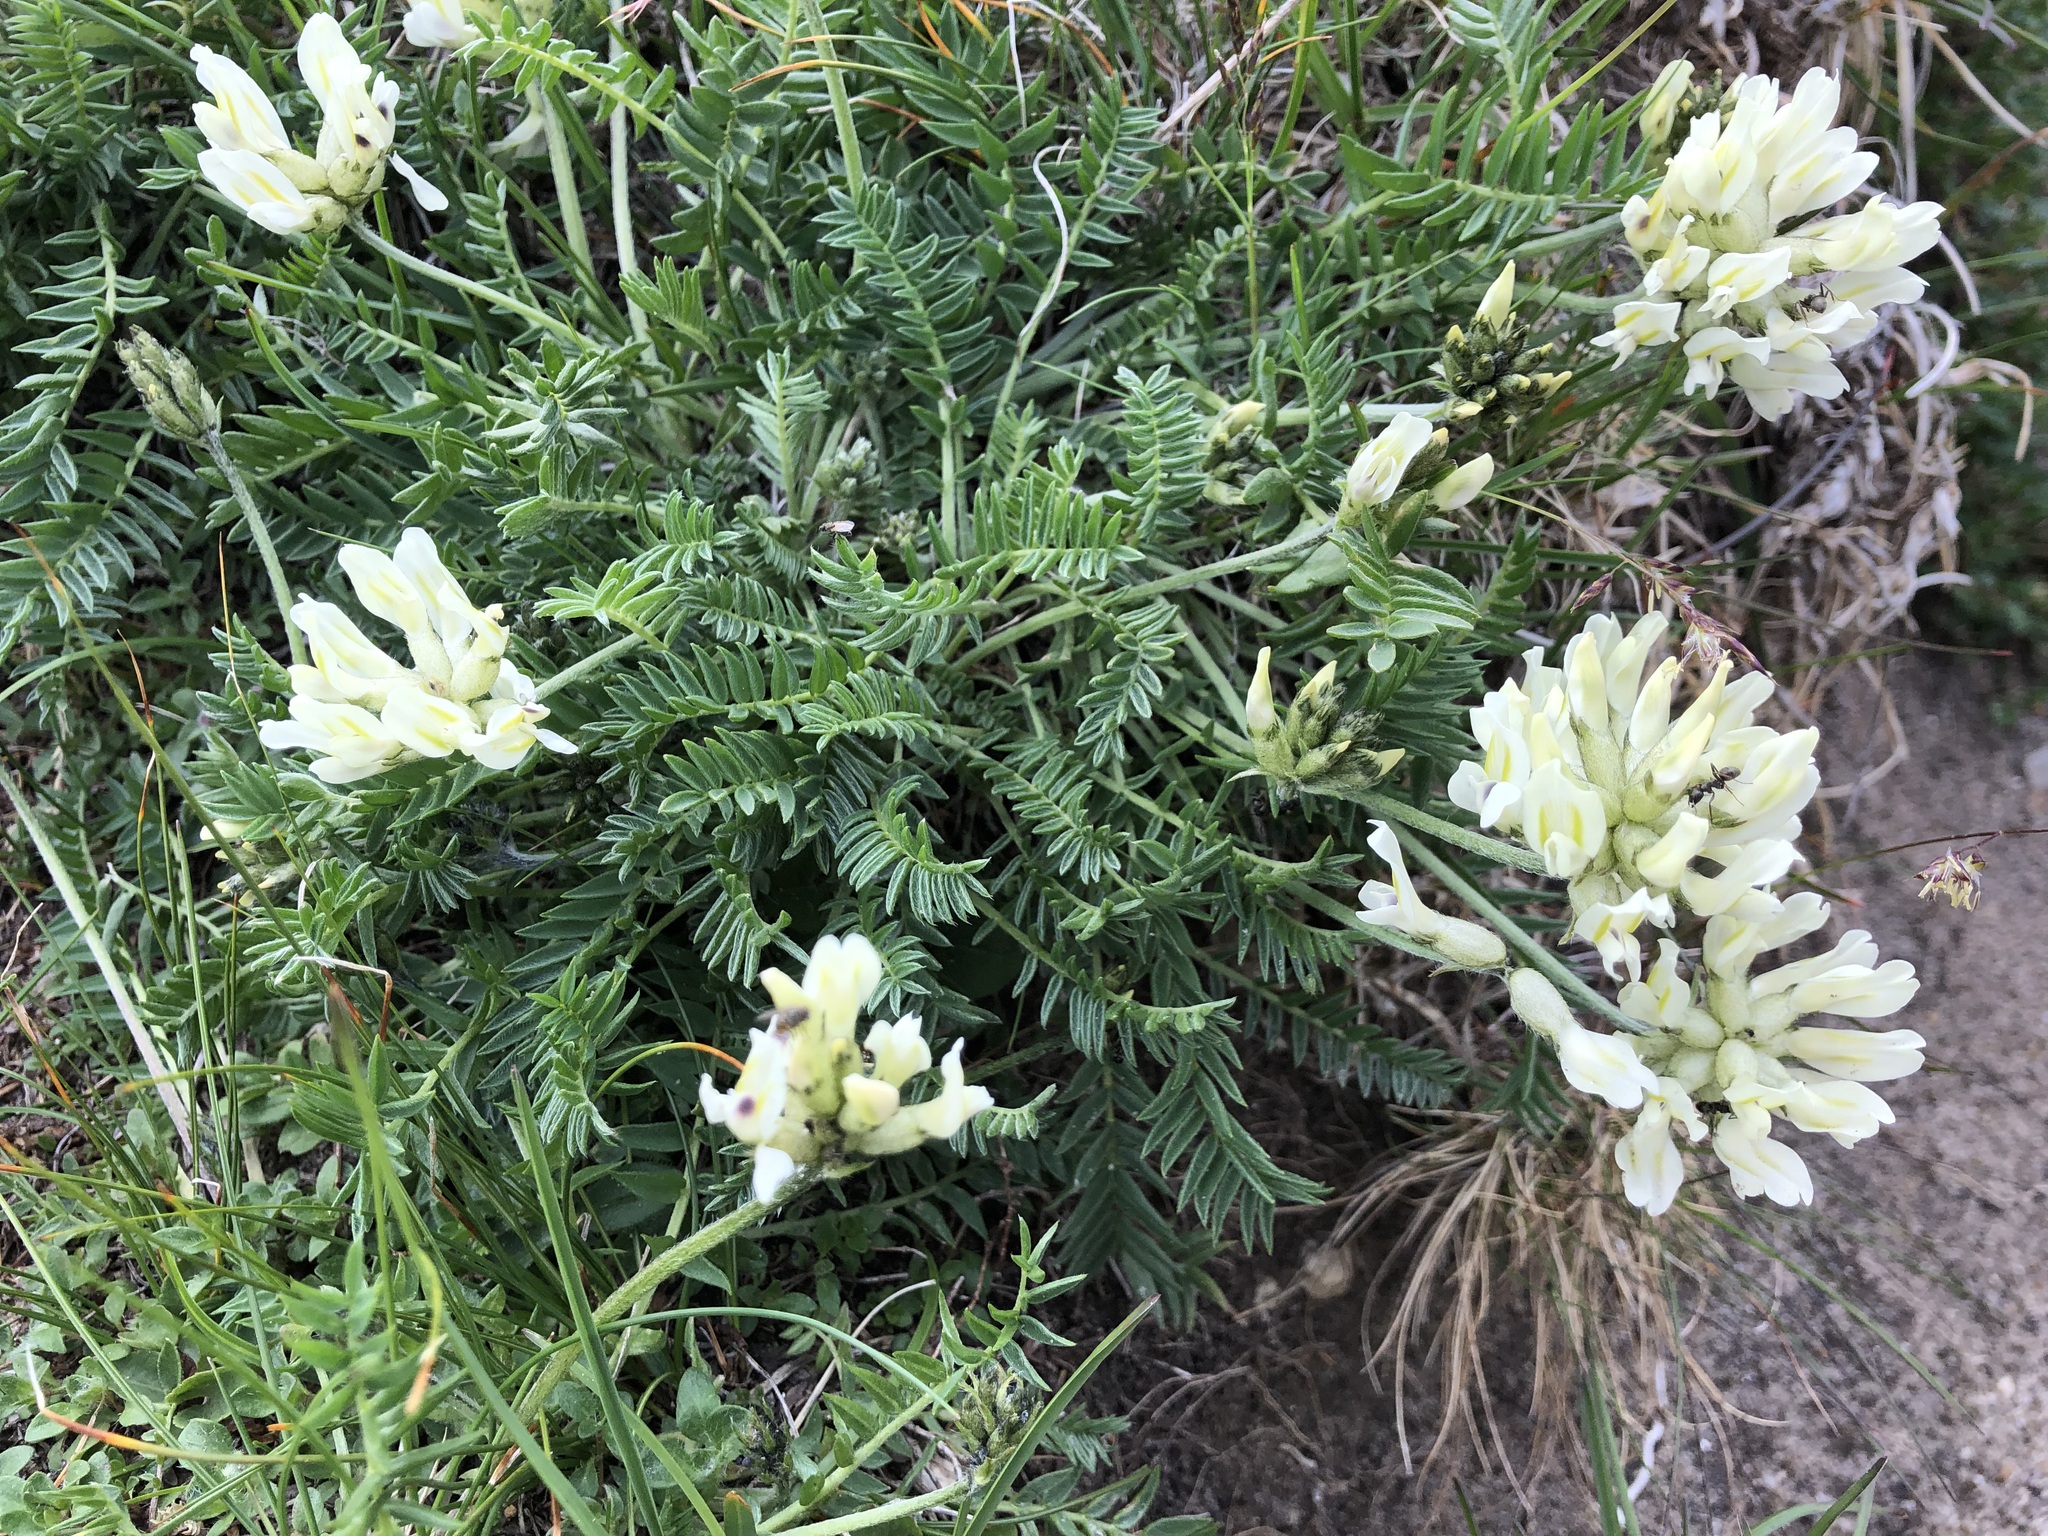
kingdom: Plantae
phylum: Tracheophyta
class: Magnoliopsida
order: Fabales
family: Fabaceae
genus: Oxytropis
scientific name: Oxytropis campestris
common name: Field locoweed
